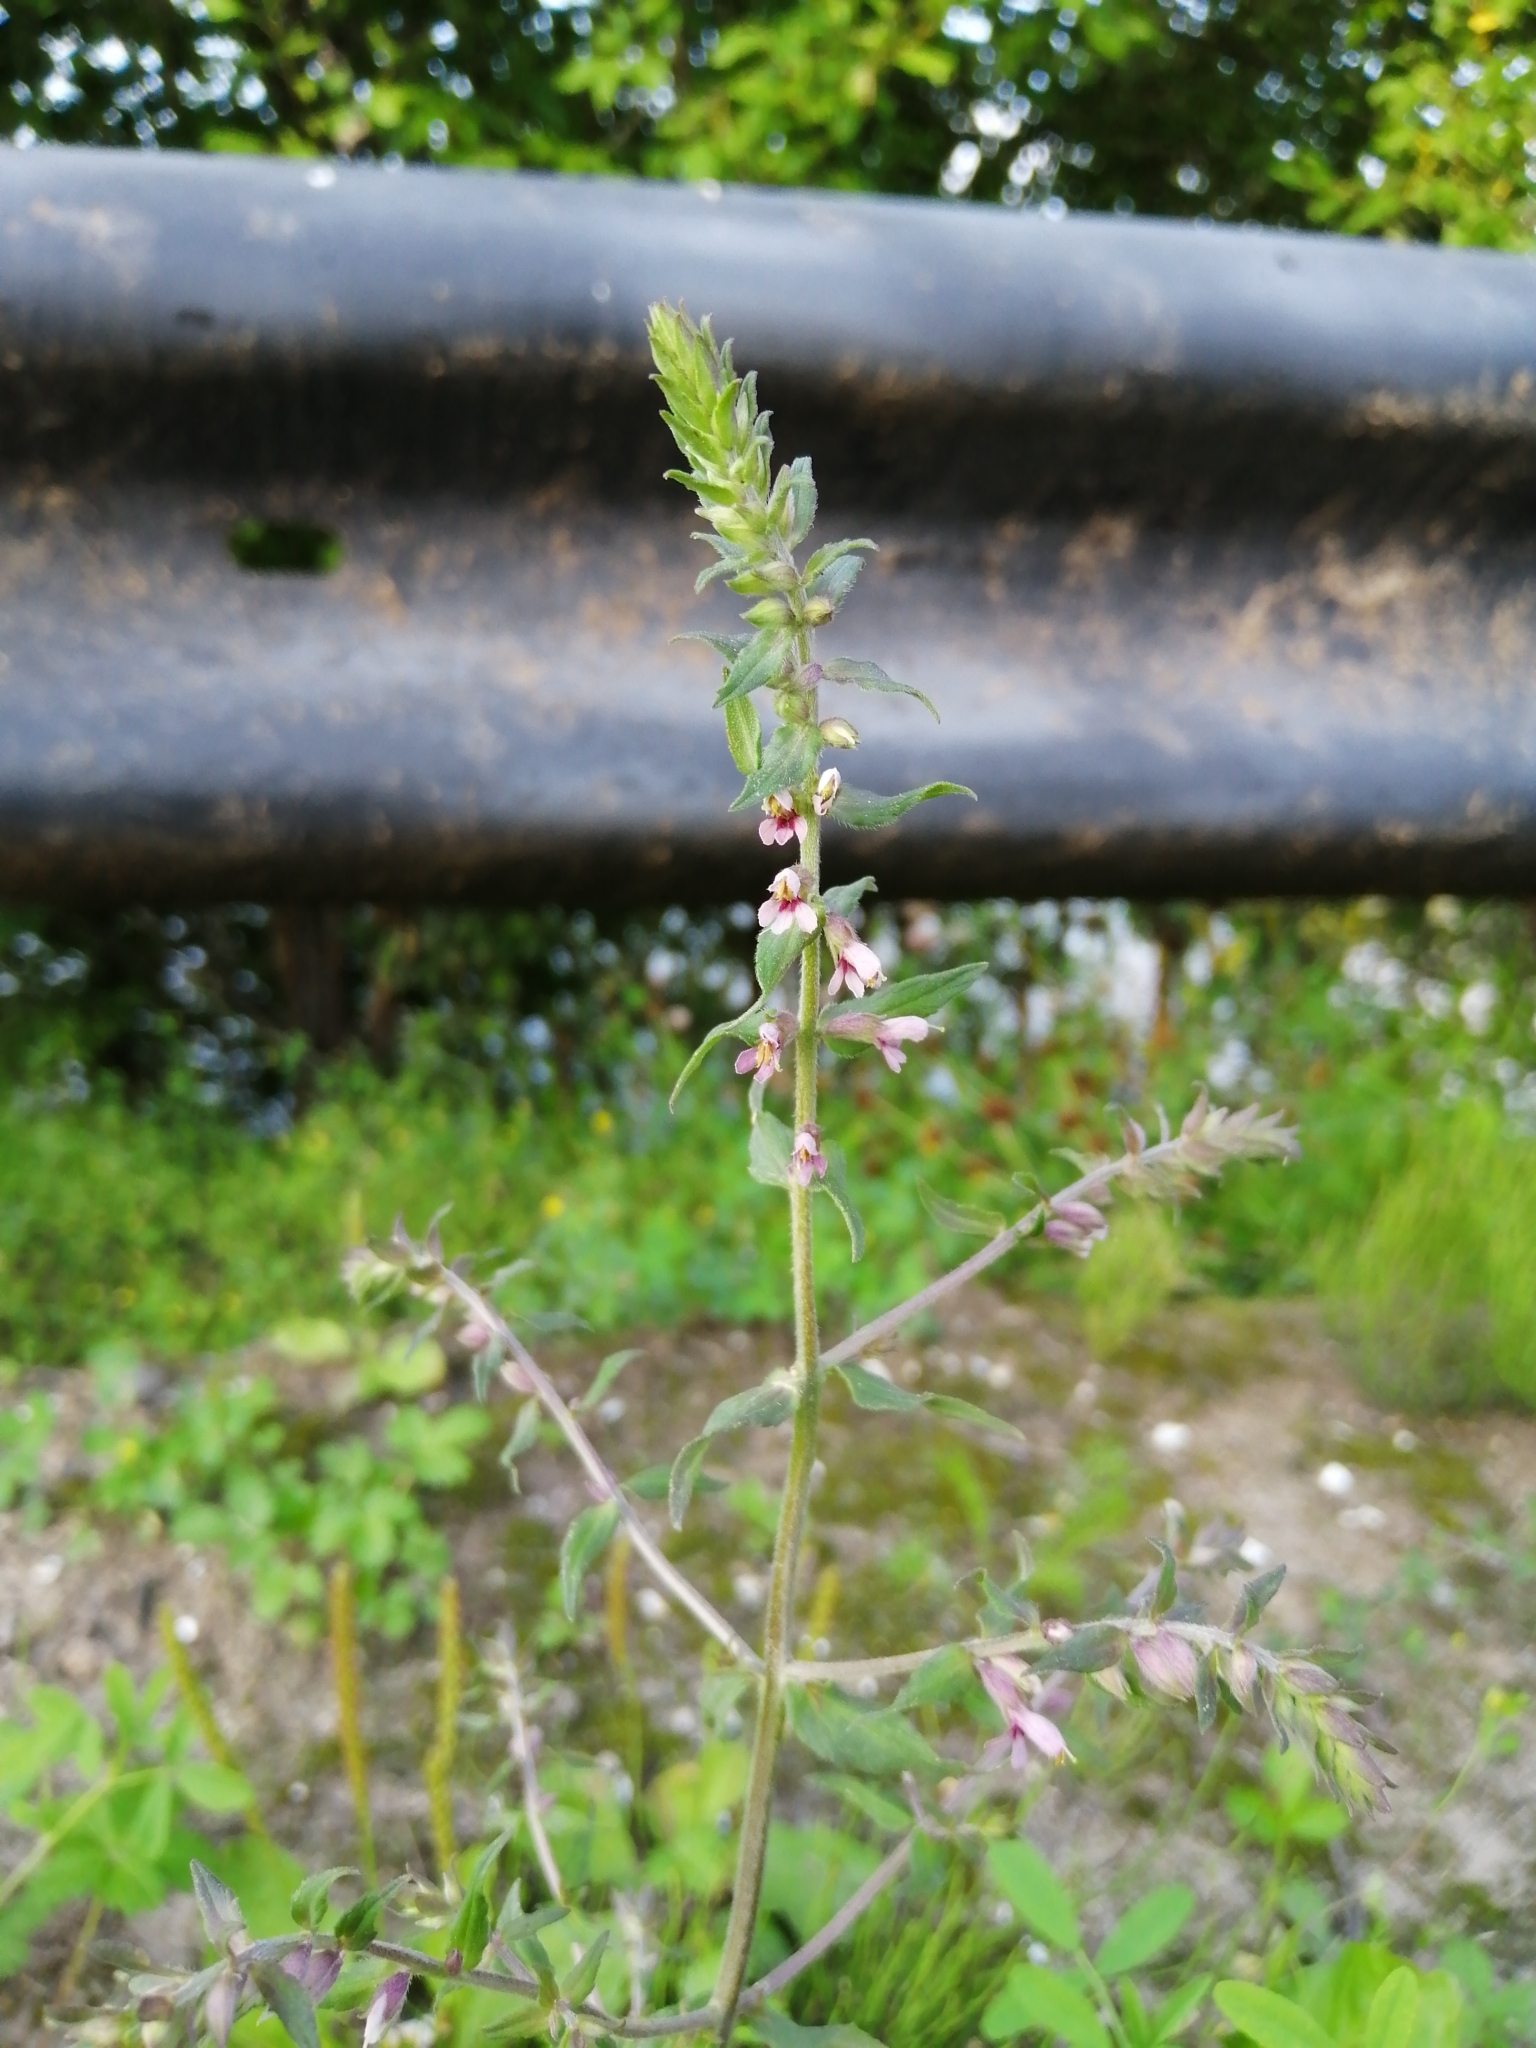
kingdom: Plantae
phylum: Tracheophyta
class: Magnoliopsida
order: Lamiales
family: Orobanchaceae
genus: Odontites
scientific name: Odontites vulgaris
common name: Broomrape
